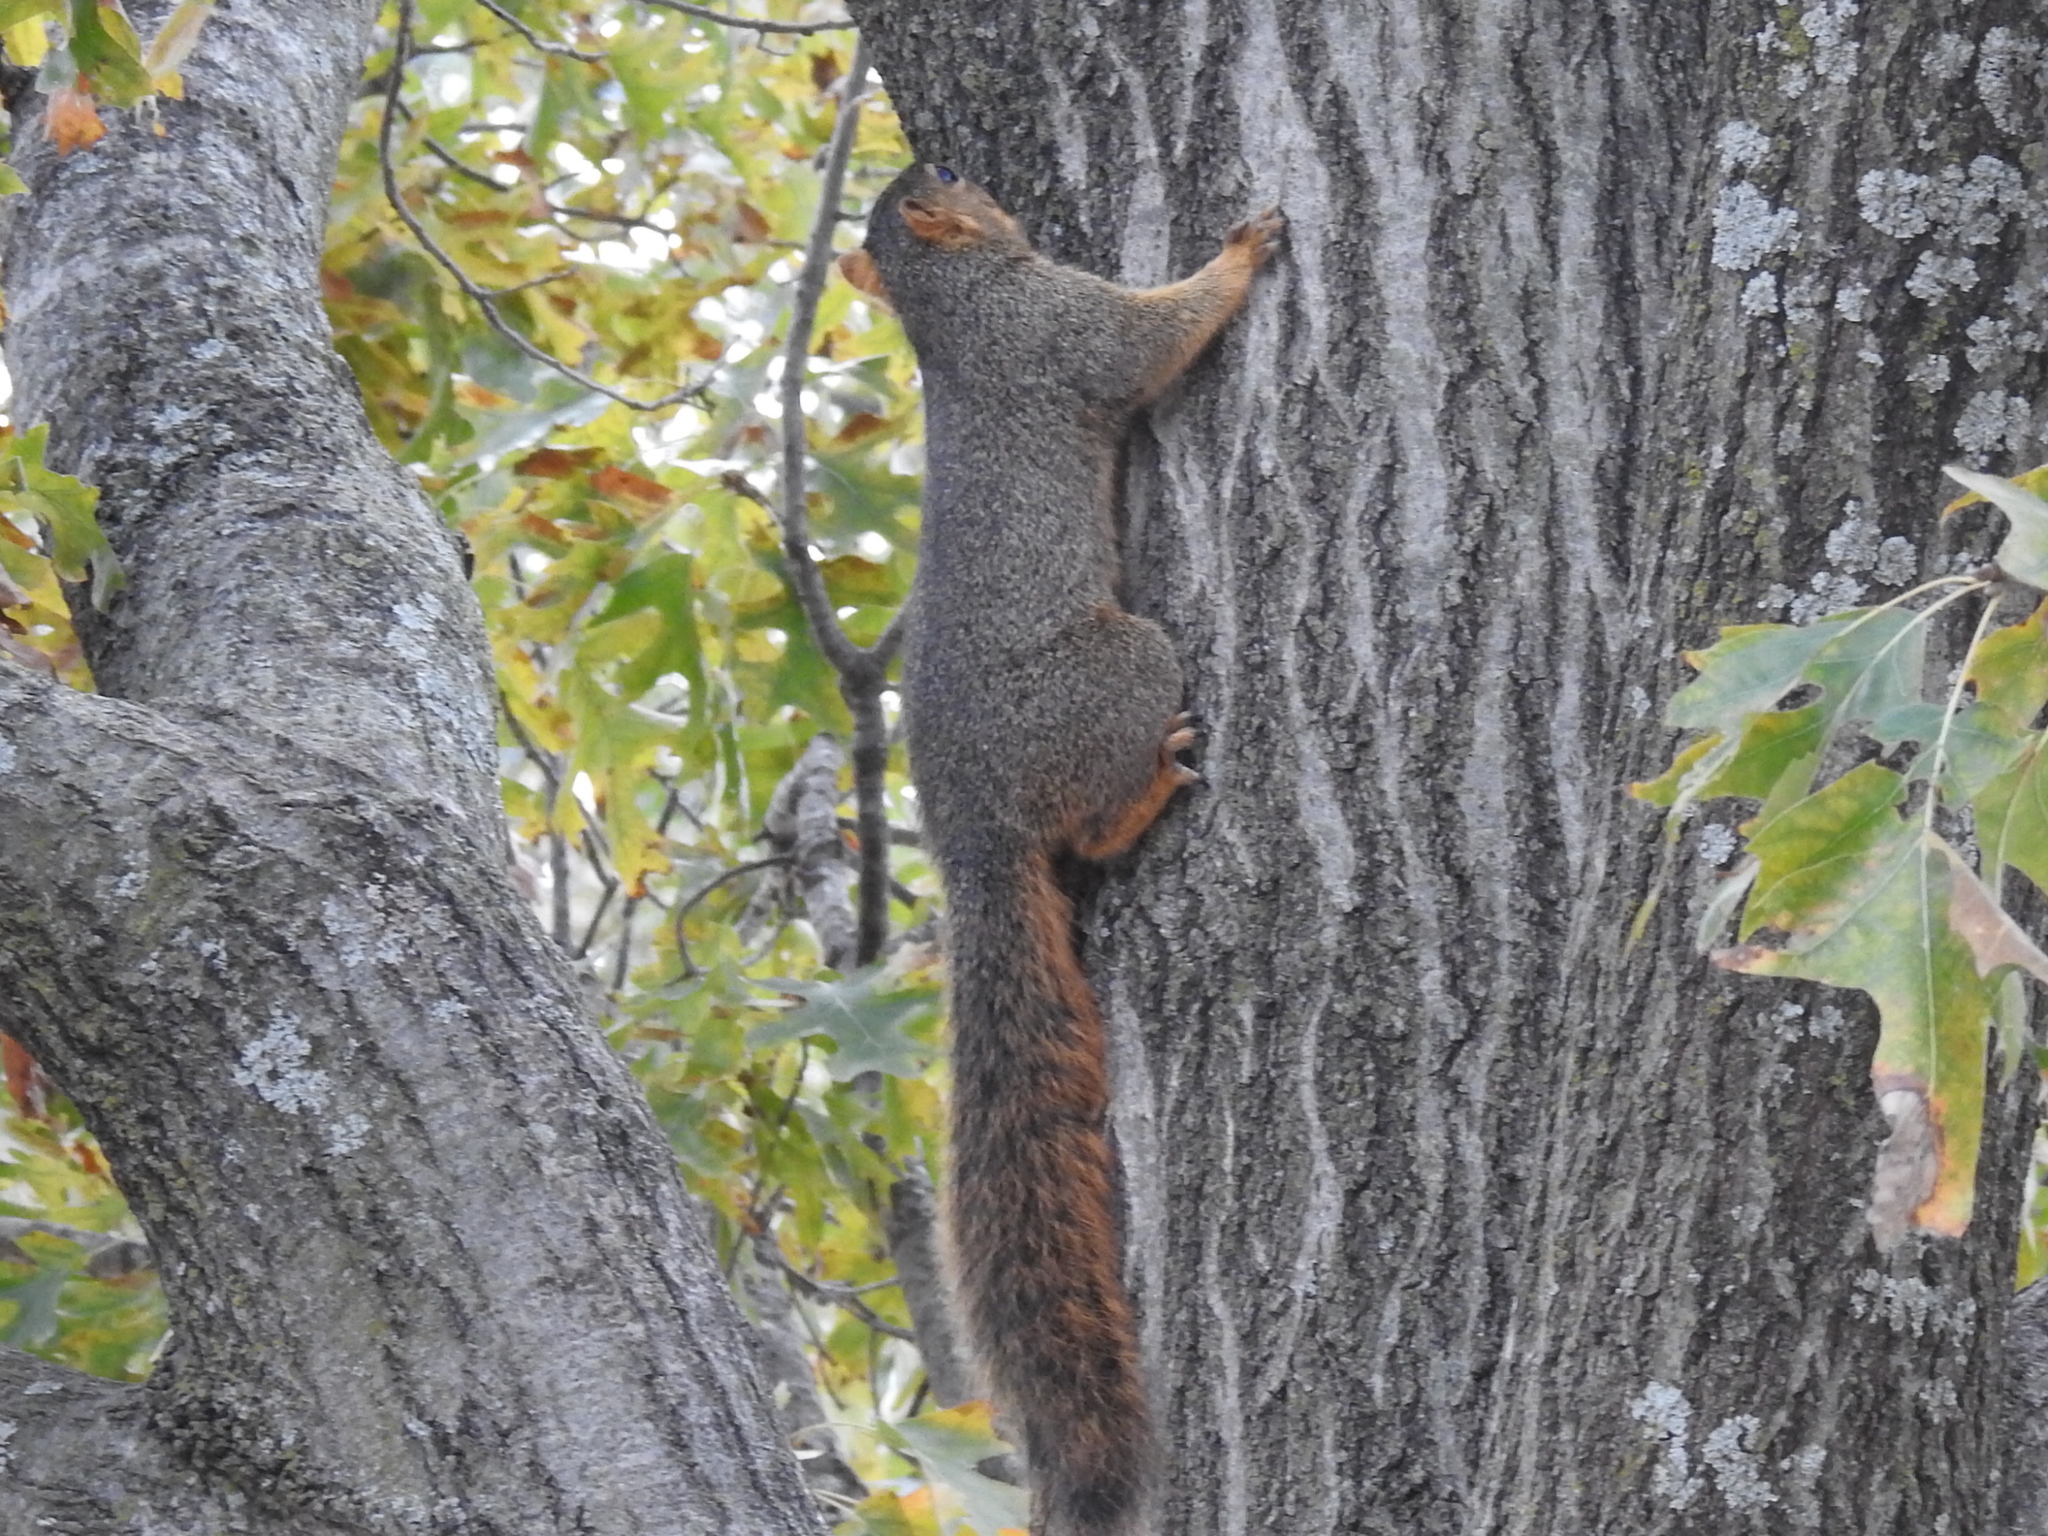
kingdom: Animalia
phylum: Chordata
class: Mammalia
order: Rodentia
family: Sciuridae
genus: Sciurus
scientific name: Sciurus niger
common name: Fox squirrel
